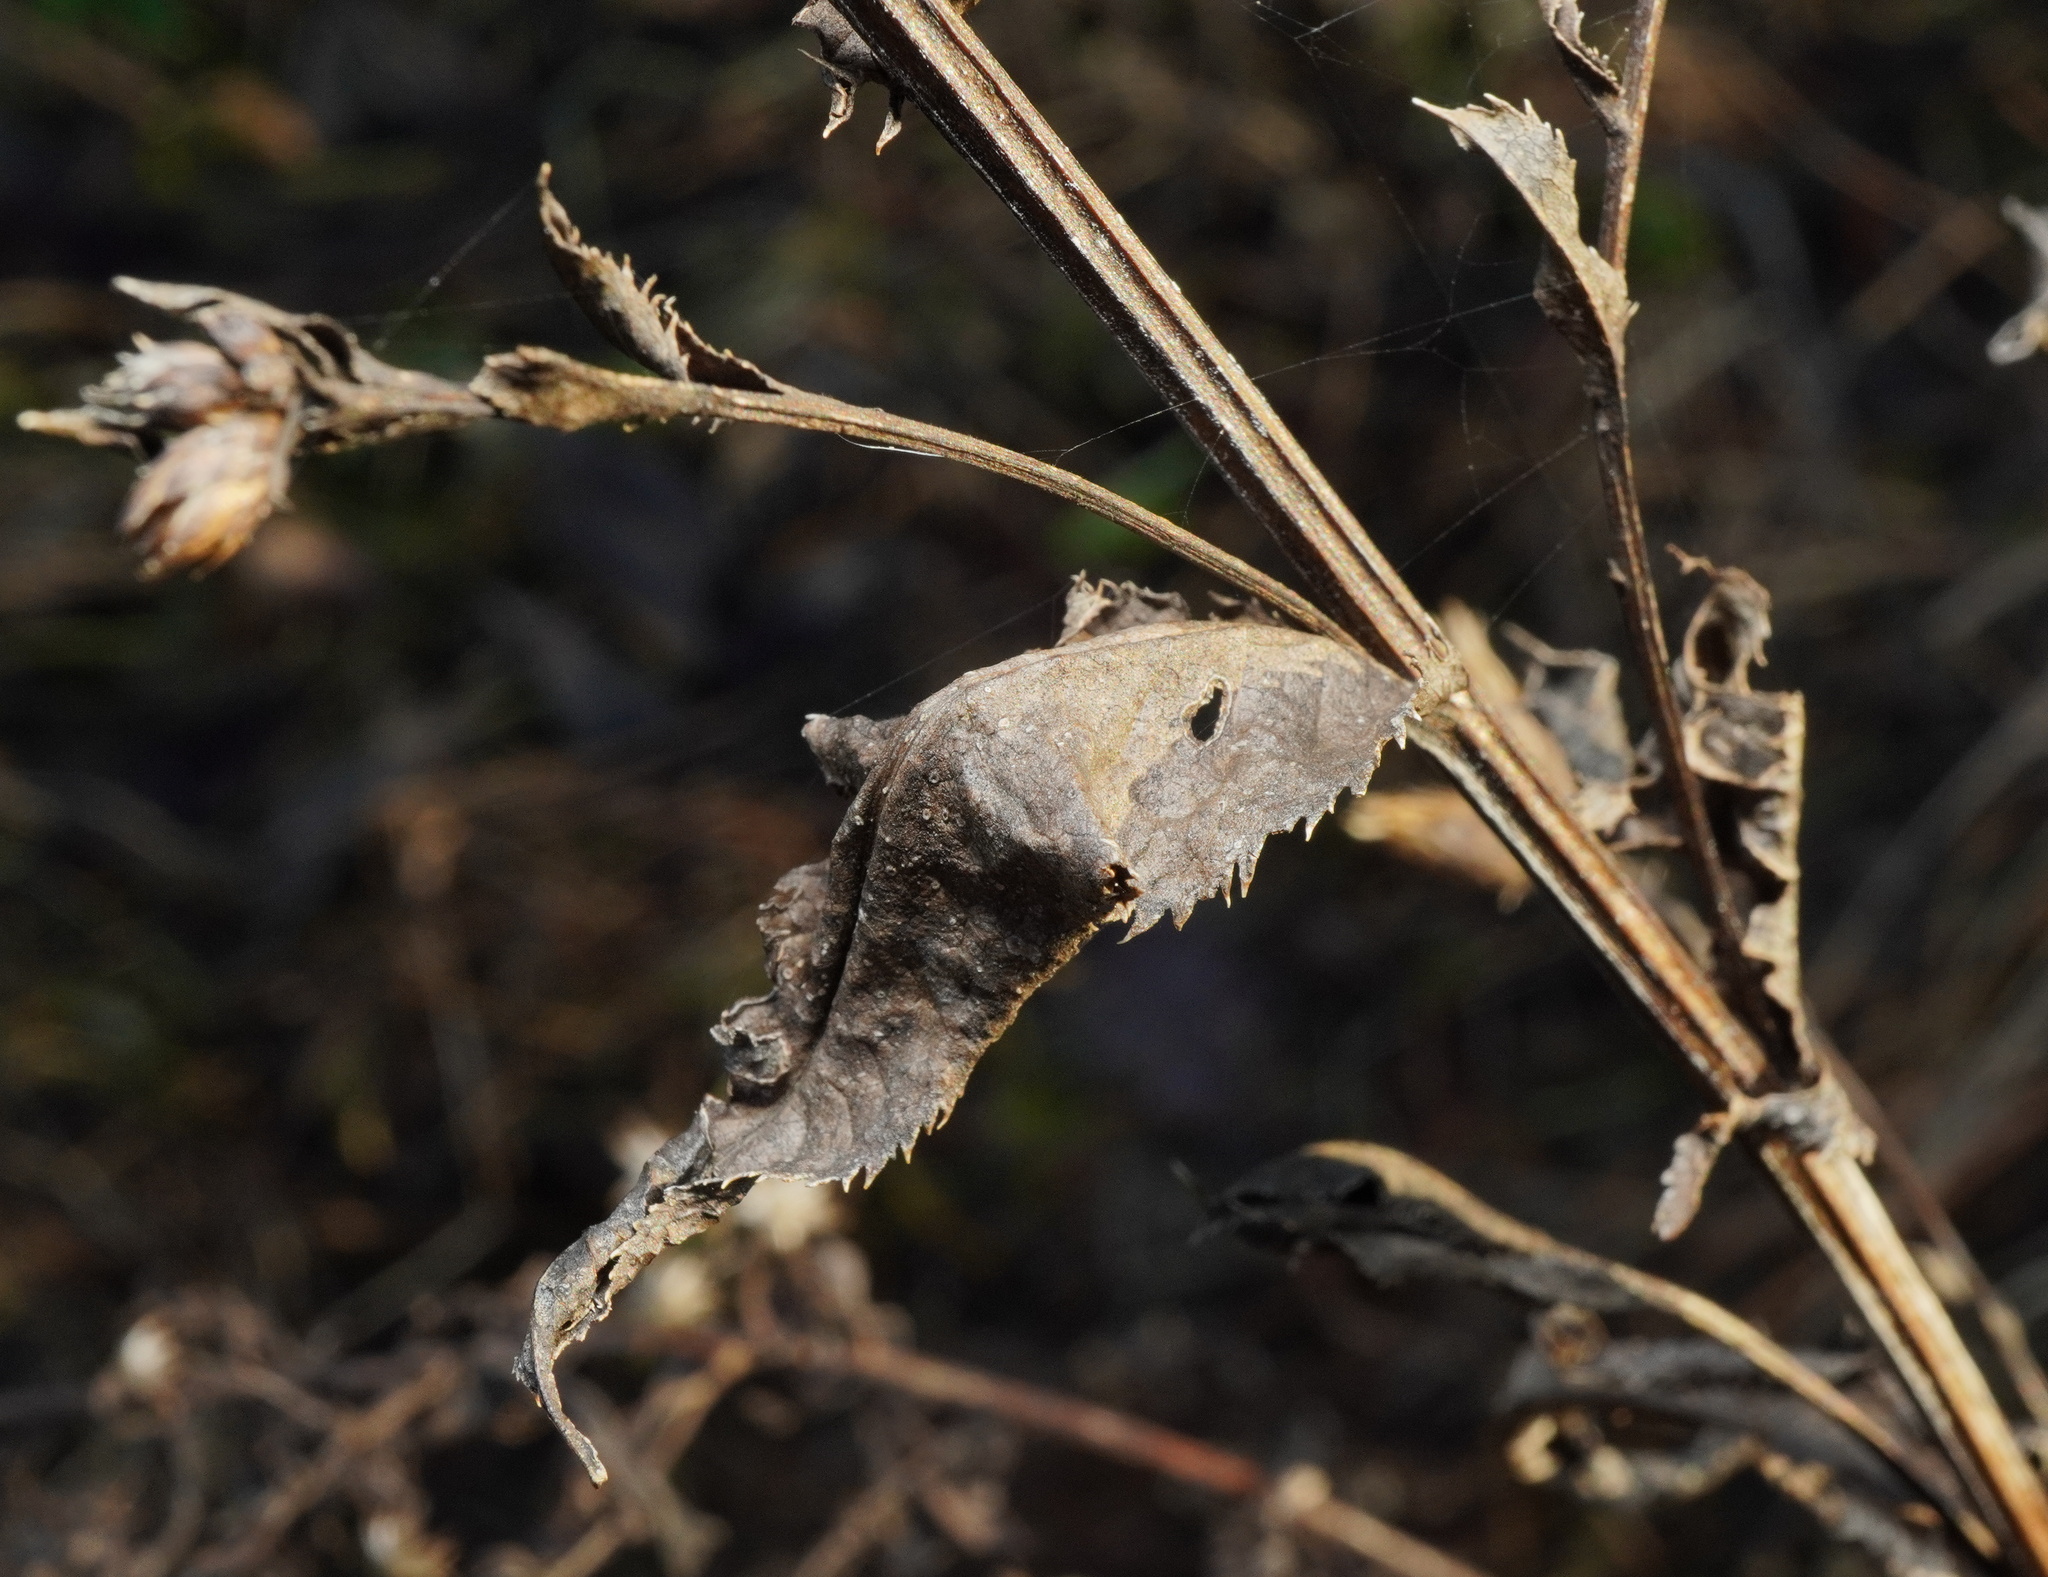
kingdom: Plantae
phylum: Tracheophyta
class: Magnoliopsida
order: Asterales
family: Asteraceae
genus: Serratula
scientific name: Serratula tinctoria
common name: Saw-wort
